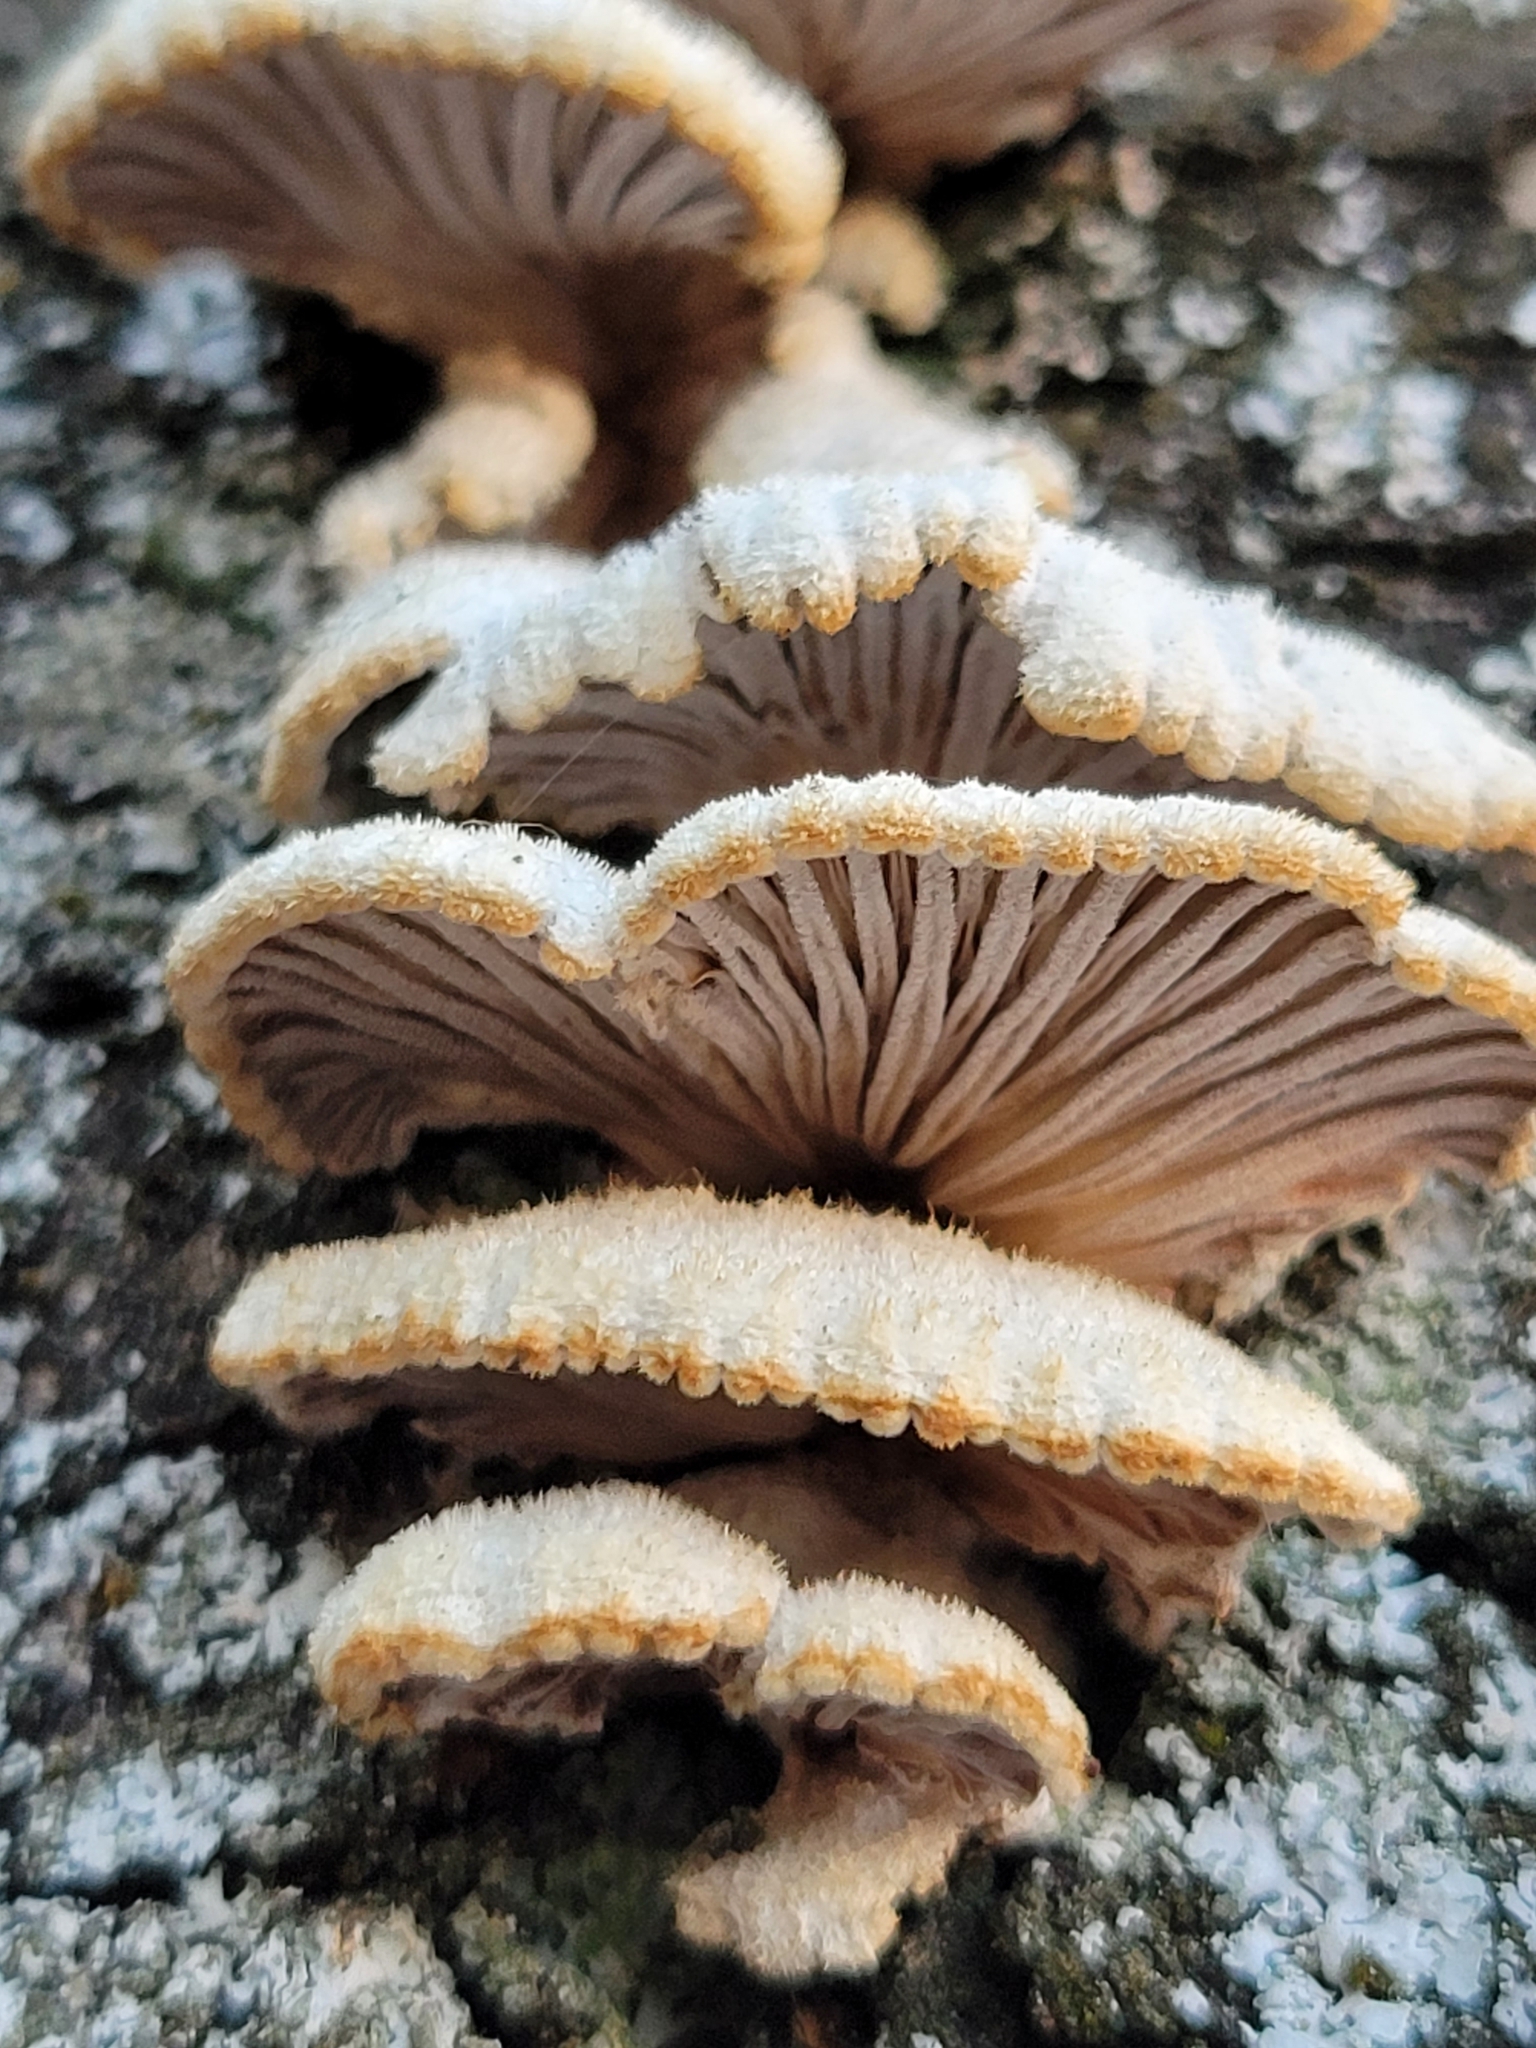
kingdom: Fungi
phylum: Basidiomycota
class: Agaricomycetes
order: Agaricales
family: Schizophyllaceae
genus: Schizophyllum
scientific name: Schizophyllum commune
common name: Common porecrust
